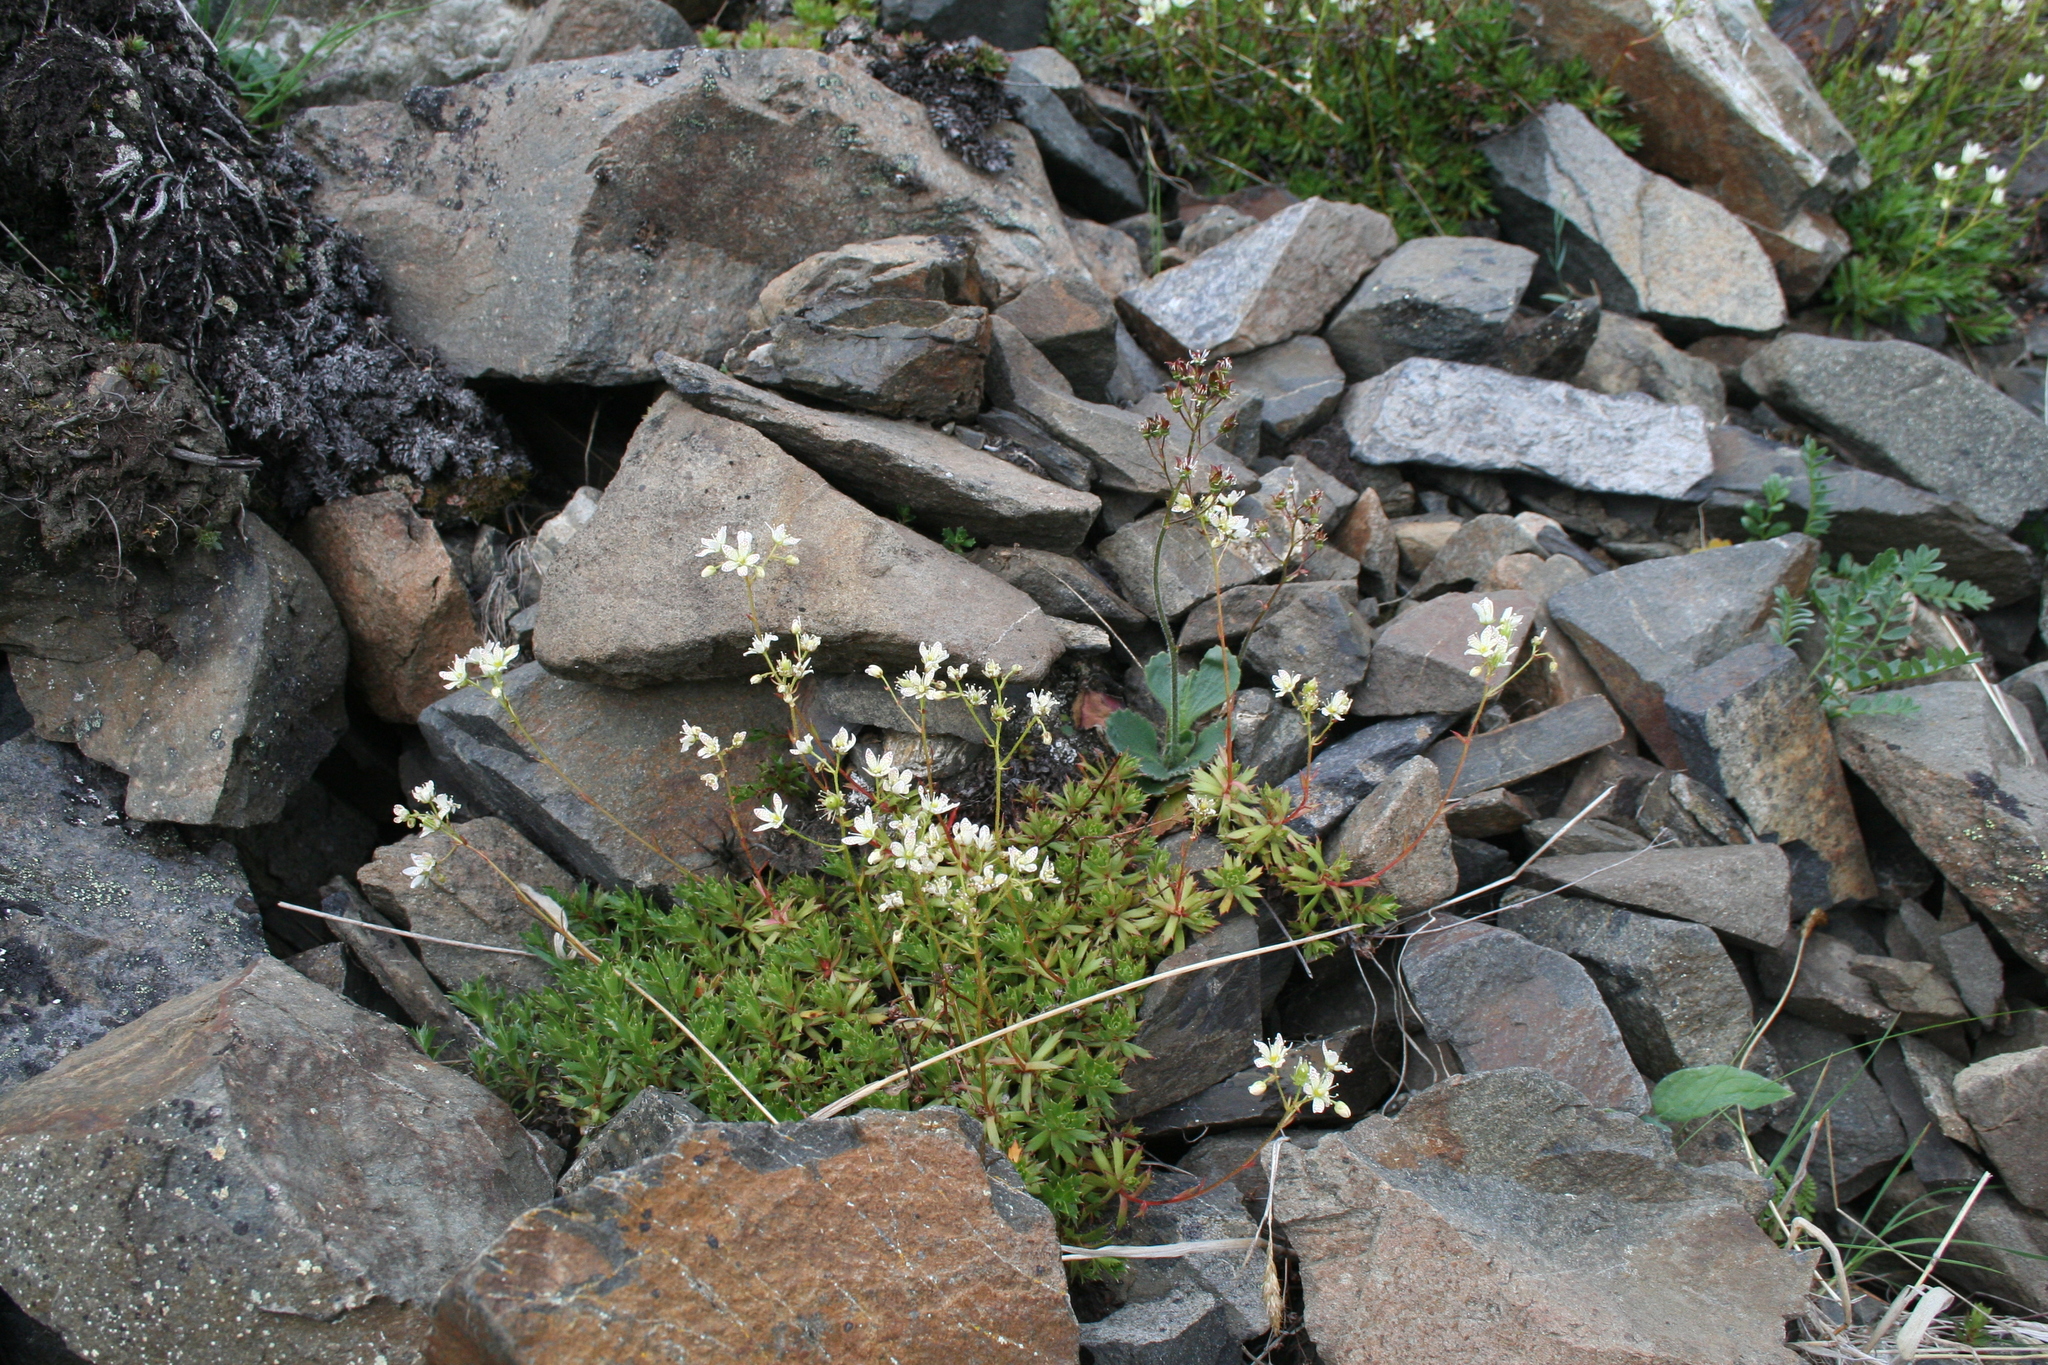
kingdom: Plantae
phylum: Tracheophyta
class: Magnoliopsida
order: Saxifragales
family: Saxifragaceae
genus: Saxifraga
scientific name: Saxifraga tricuspidata
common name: Prickly saxifrage
